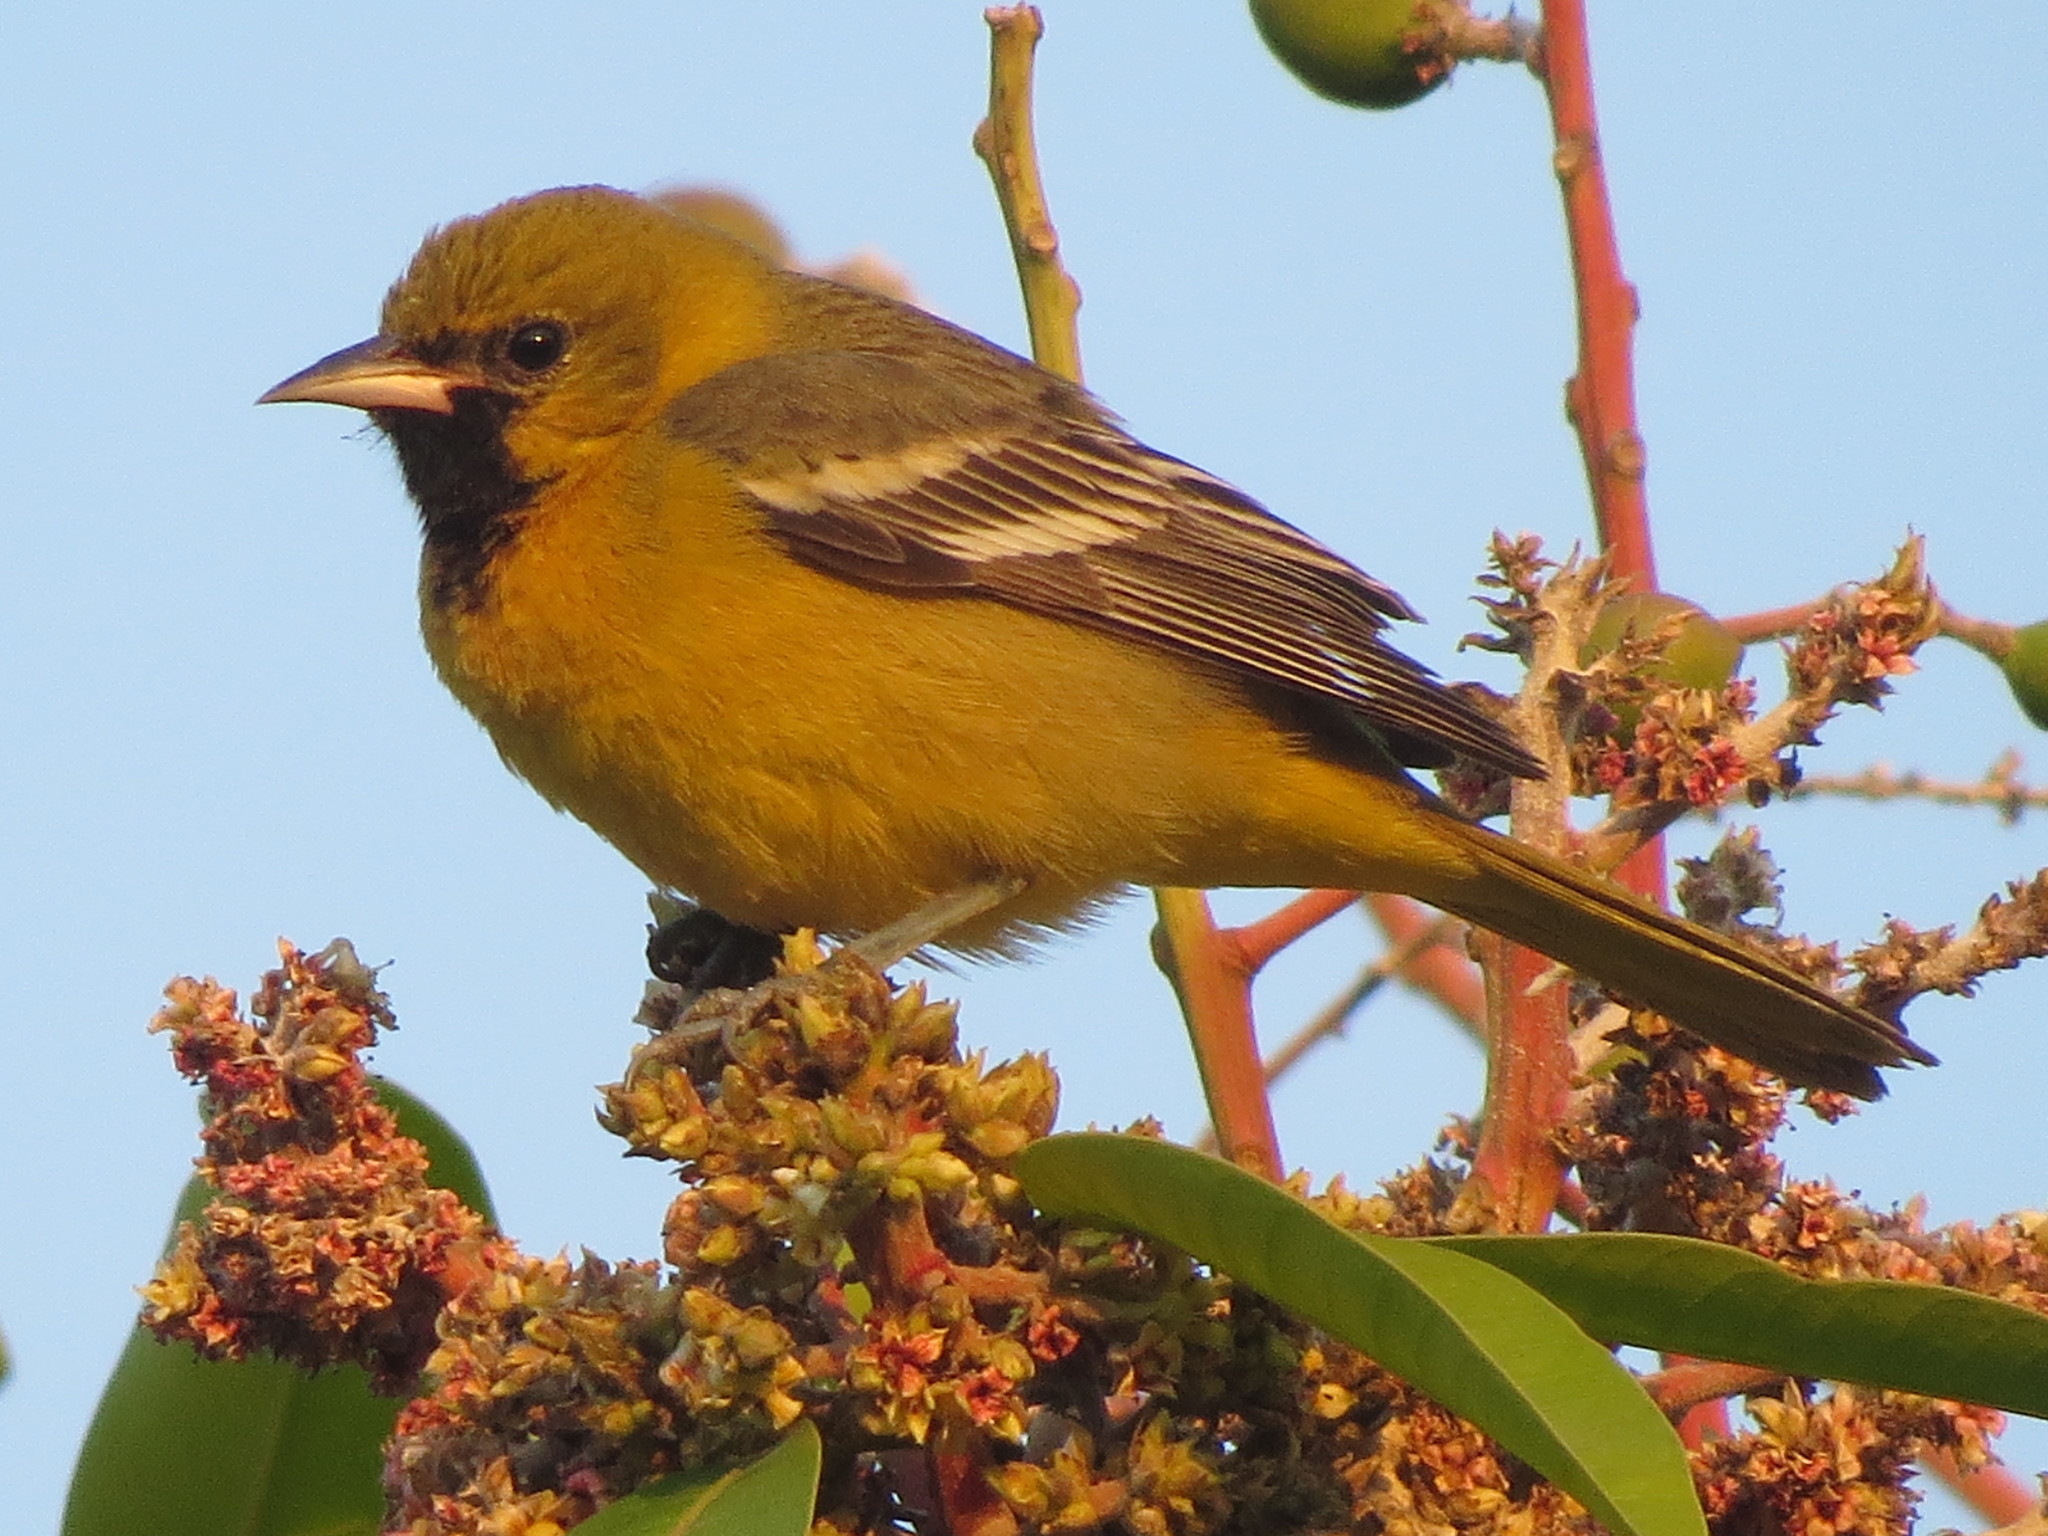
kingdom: Animalia
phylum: Chordata
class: Aves
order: Passeriformes
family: Icteridae
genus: Icterus
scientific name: Icterus spurius
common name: Orchard oriole
